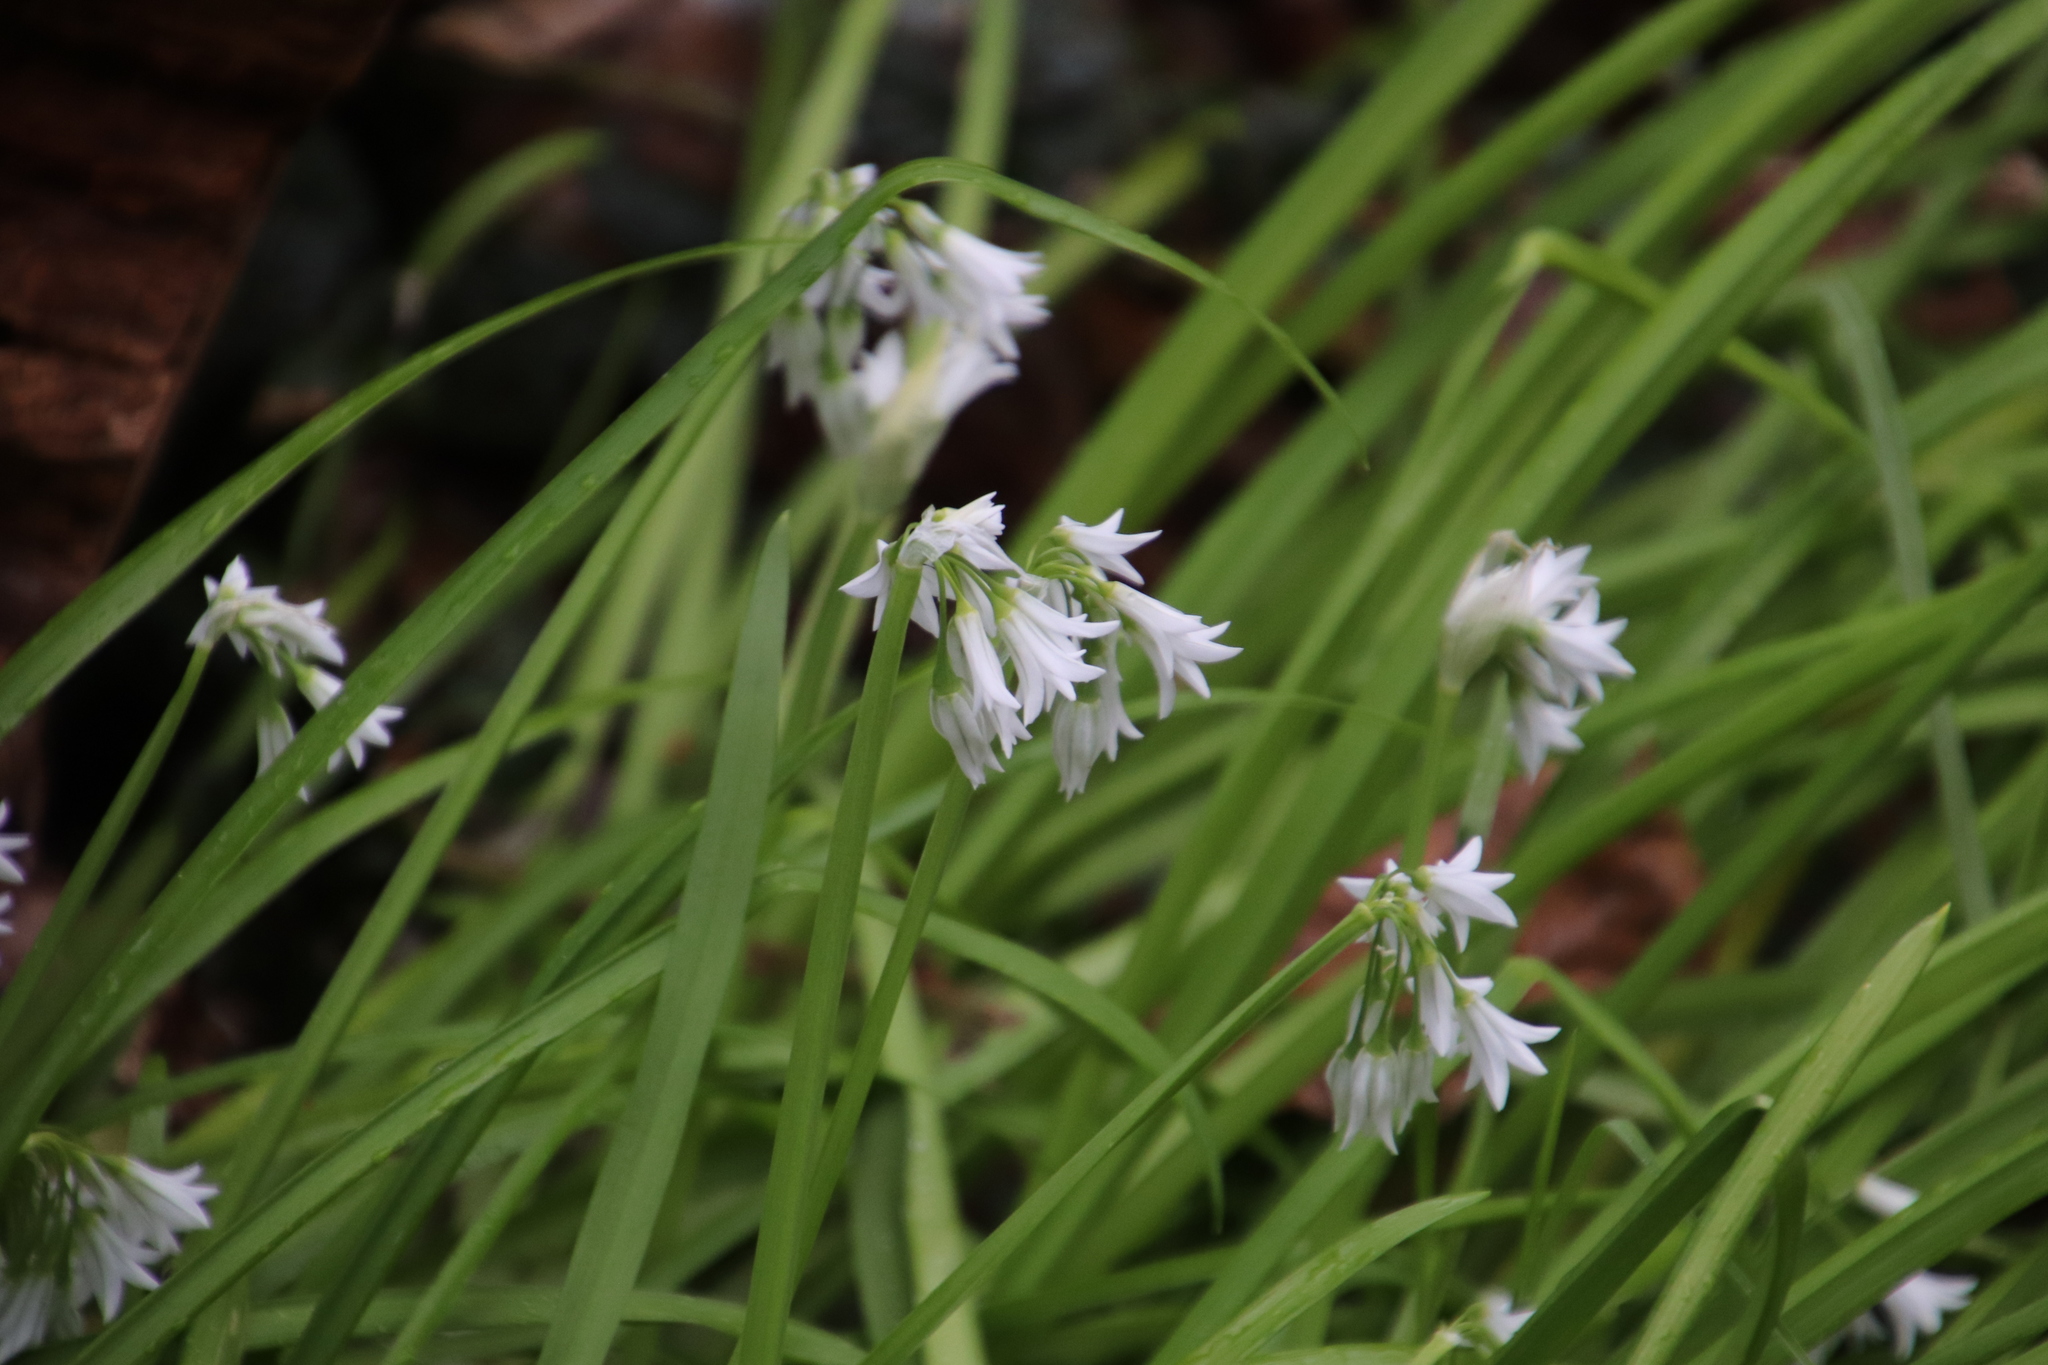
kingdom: Plantae
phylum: Tracheophyta
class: Liliopsida
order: Asparagales
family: Amaryllidaceae
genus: Allium
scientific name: Allium triquetrum
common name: Three-cornered garlic
